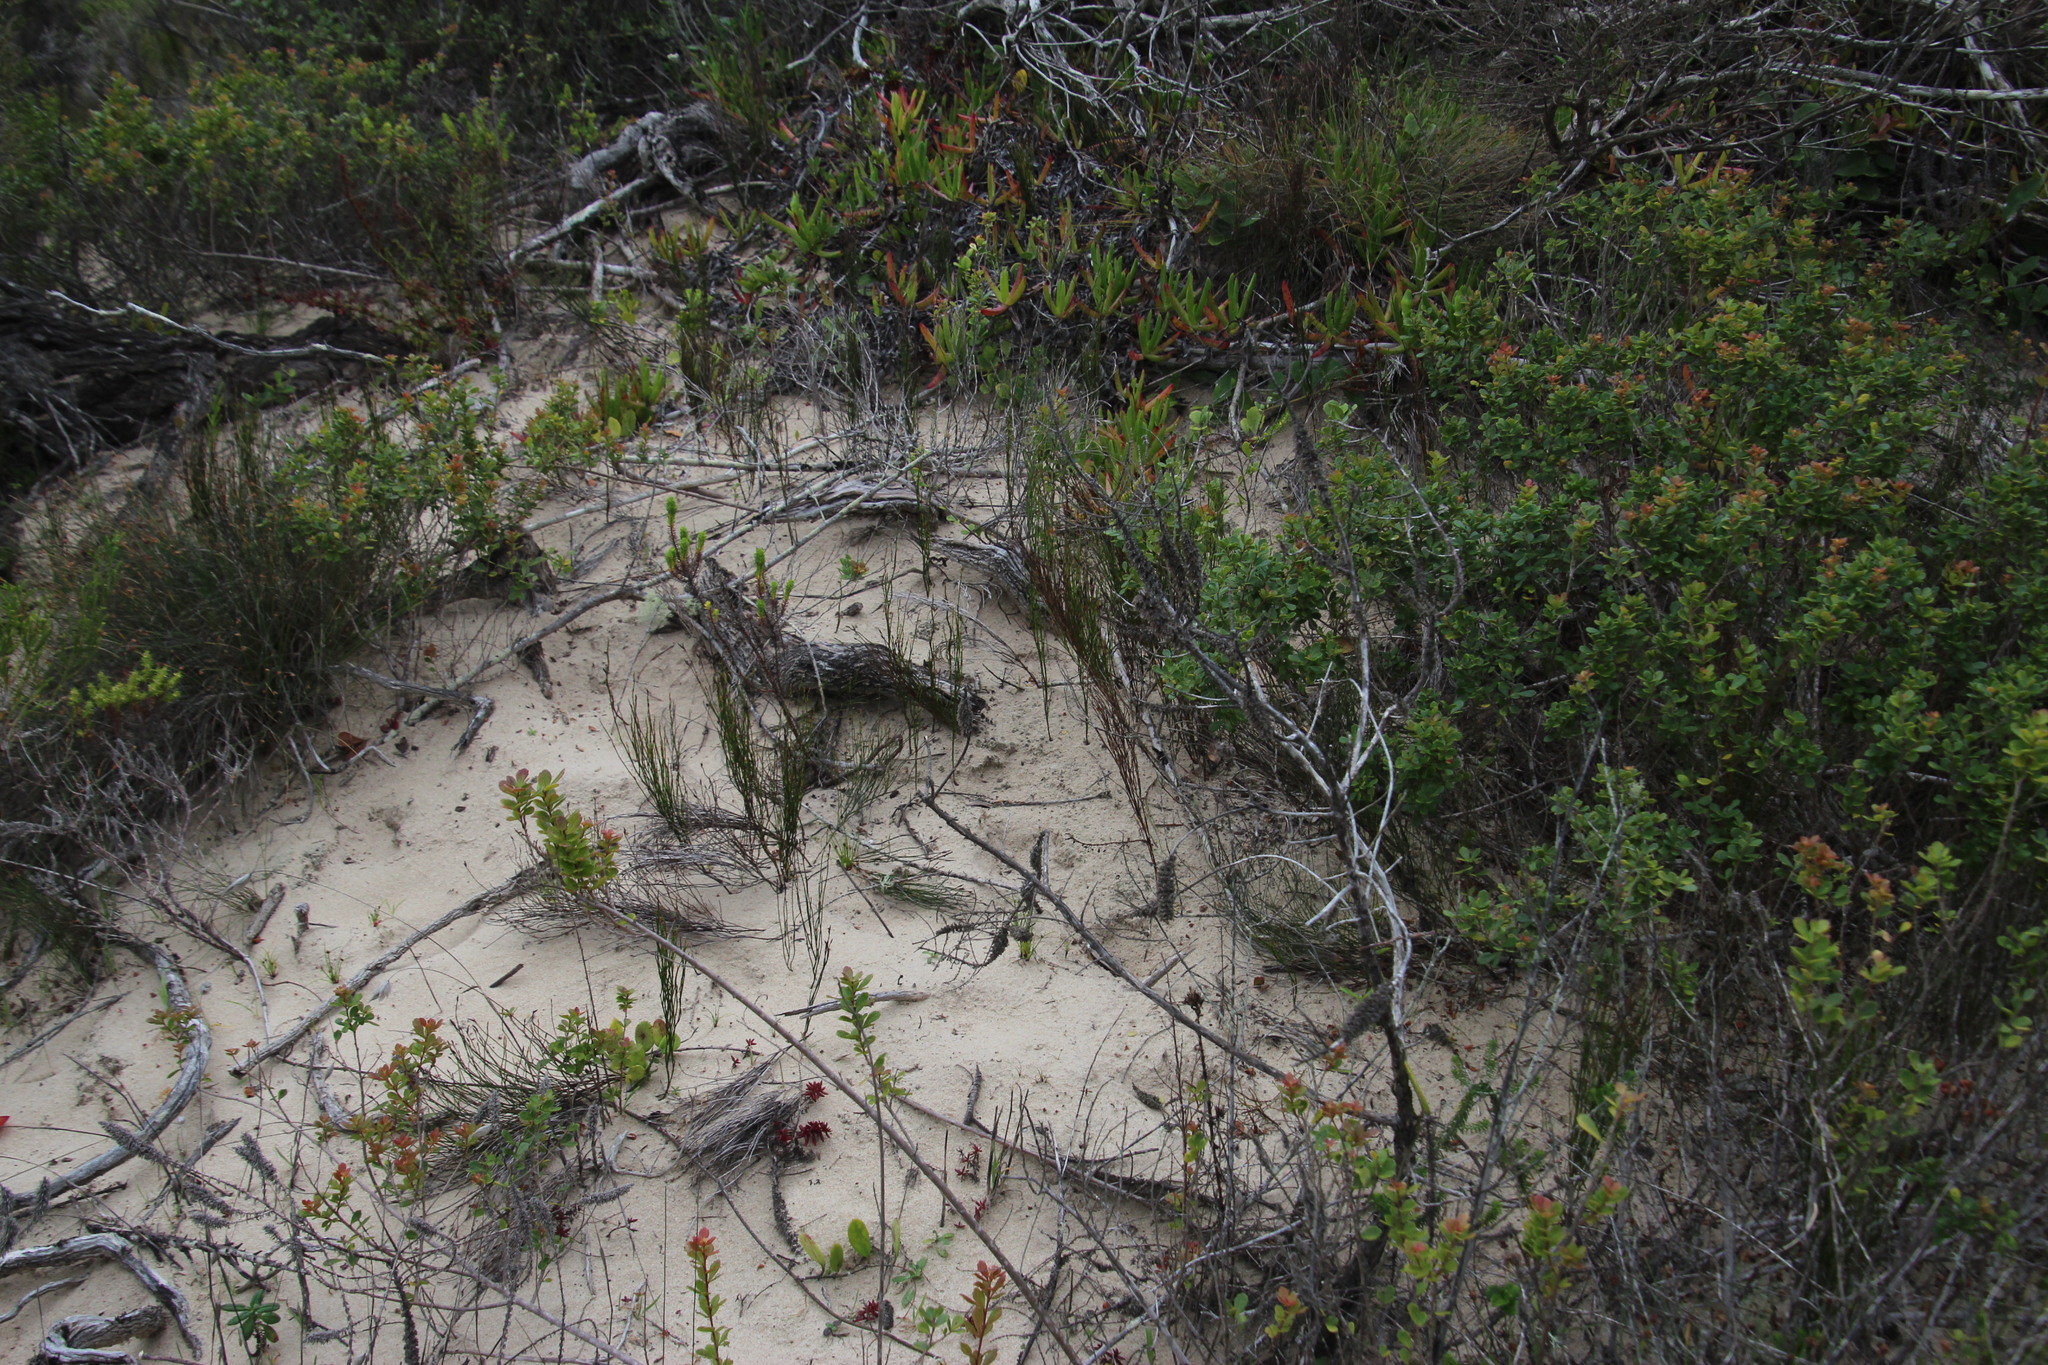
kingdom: Plantae
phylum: Tracheophyta
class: Liliopsida
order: Poales
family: Restionaceae
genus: Restio
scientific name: Restio eleocharis
